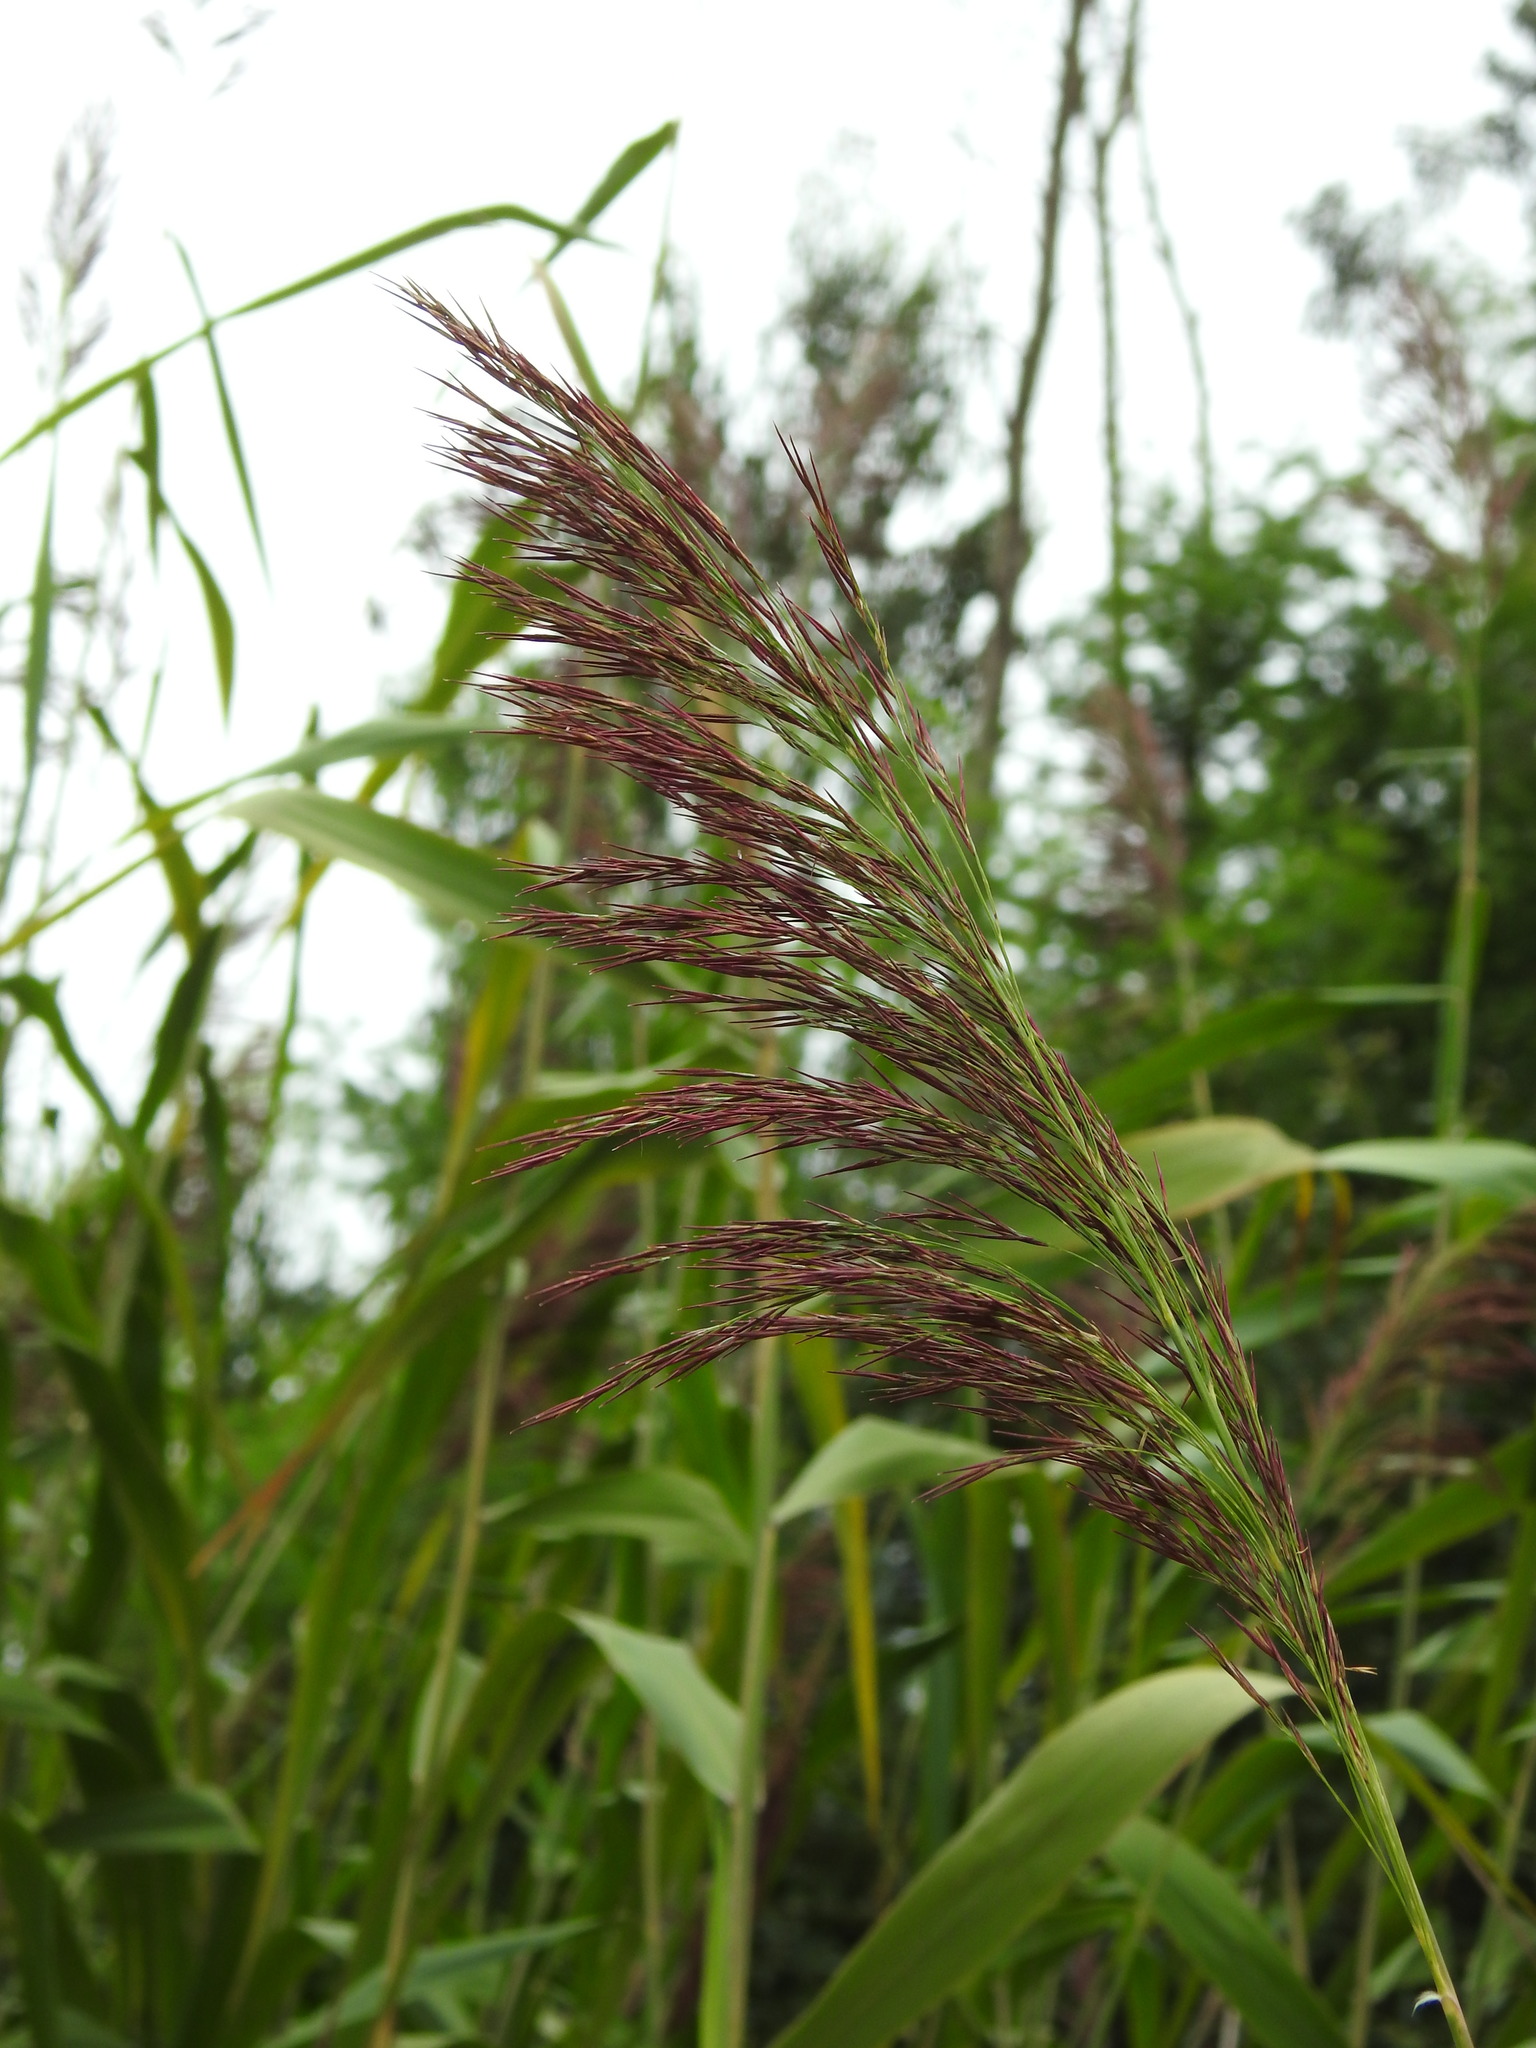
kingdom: Plantae
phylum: Tracheophyta
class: Liliopsida
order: Poales
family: Poaceae
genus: Phragmites
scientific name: Phragmites australis
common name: Common reed
